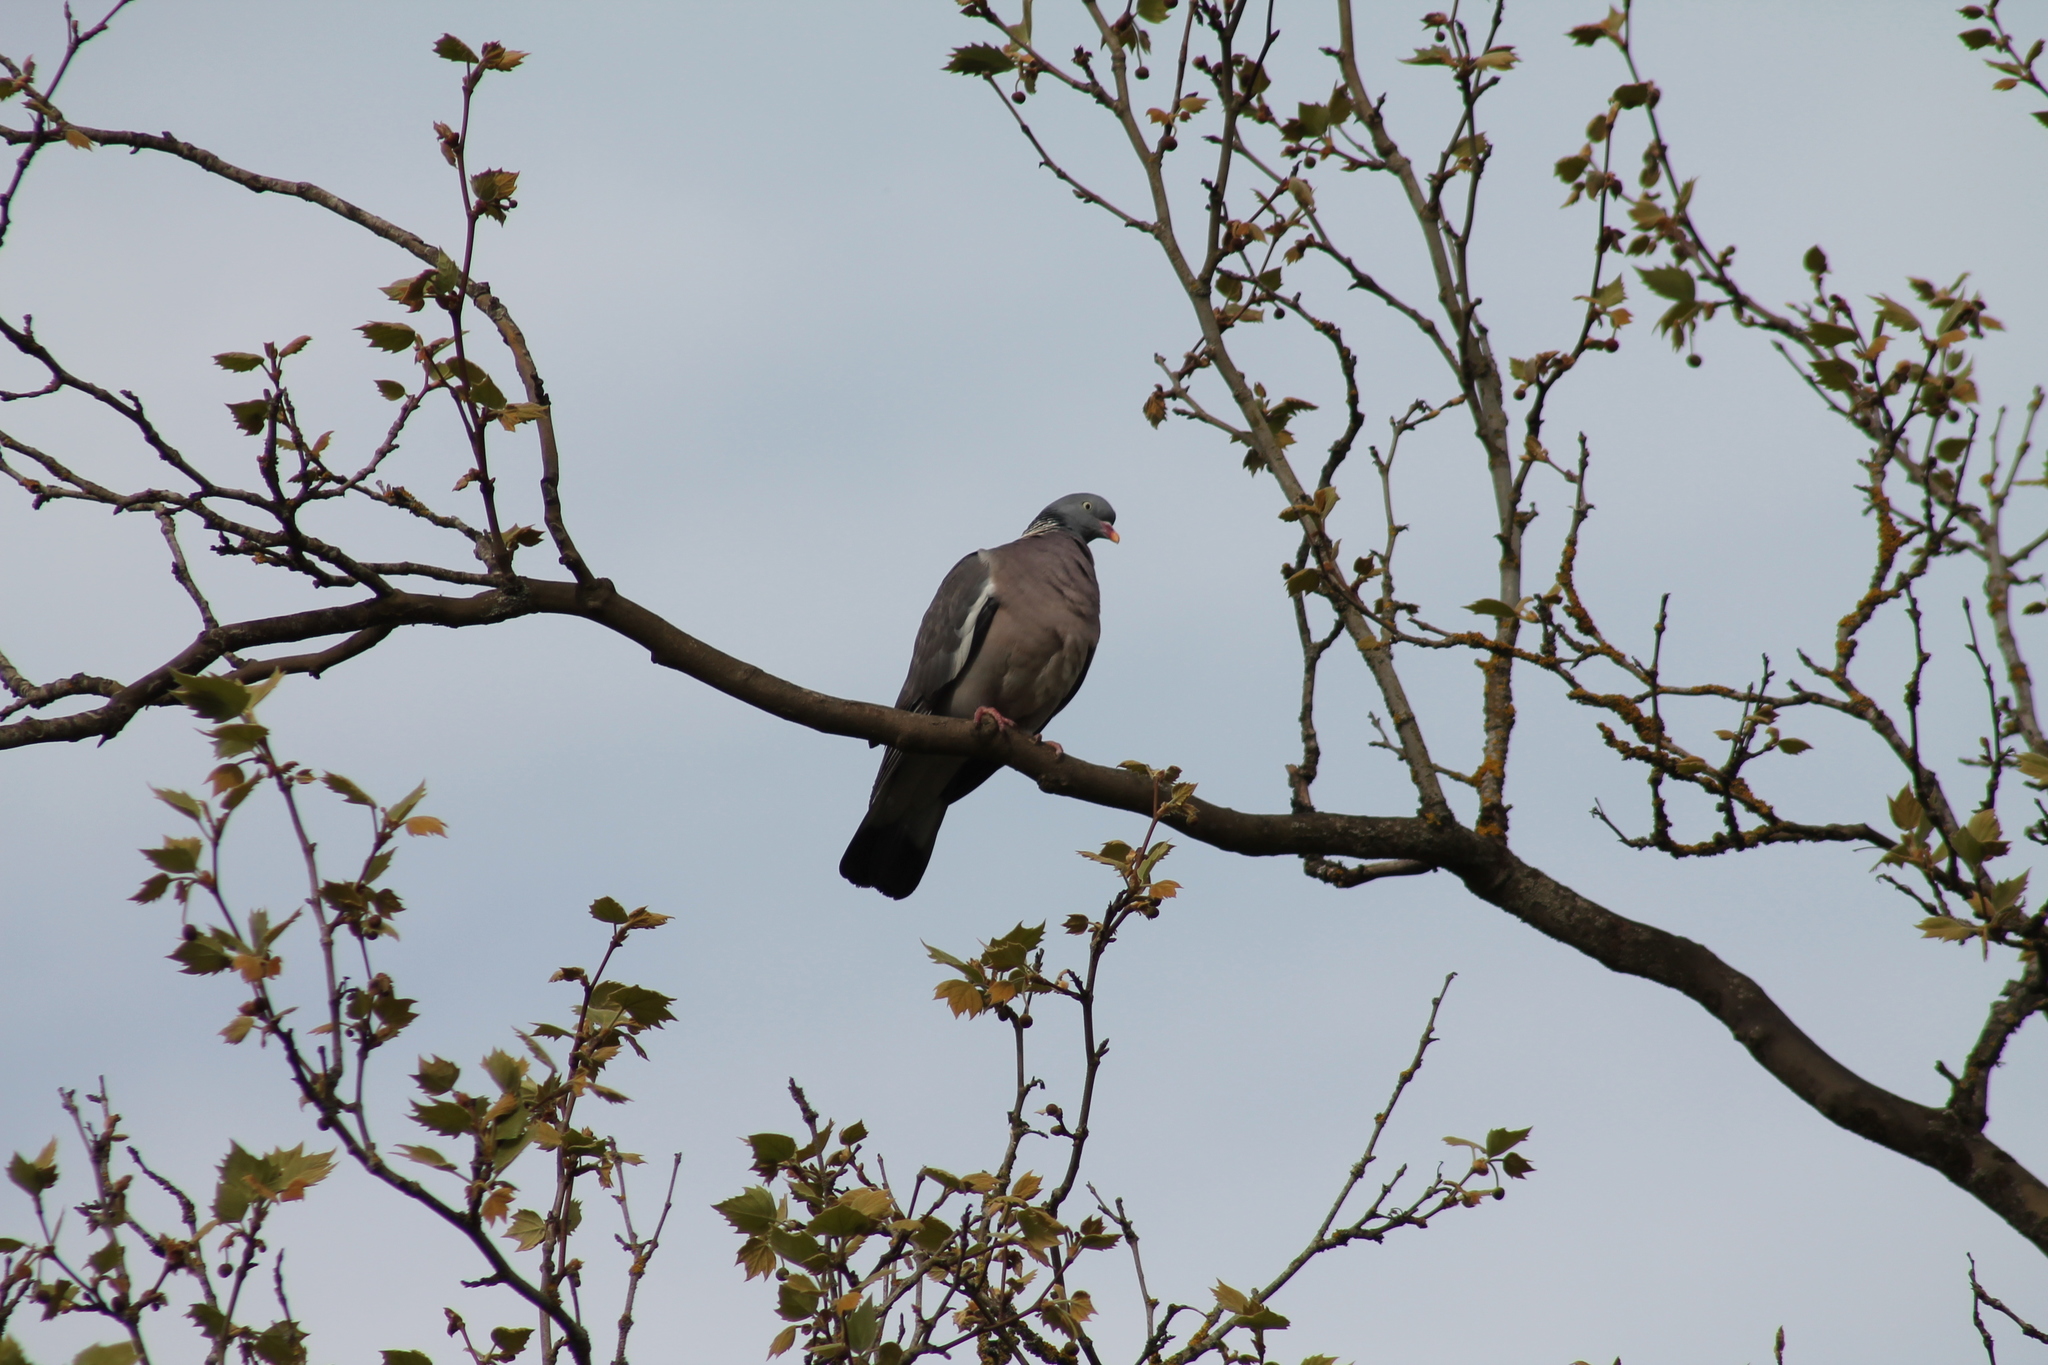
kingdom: Animalia
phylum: Chordata
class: Aves
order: Columbiformes
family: Columbidae
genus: Columba
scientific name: Columba palumbus
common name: Common wood pigeon
